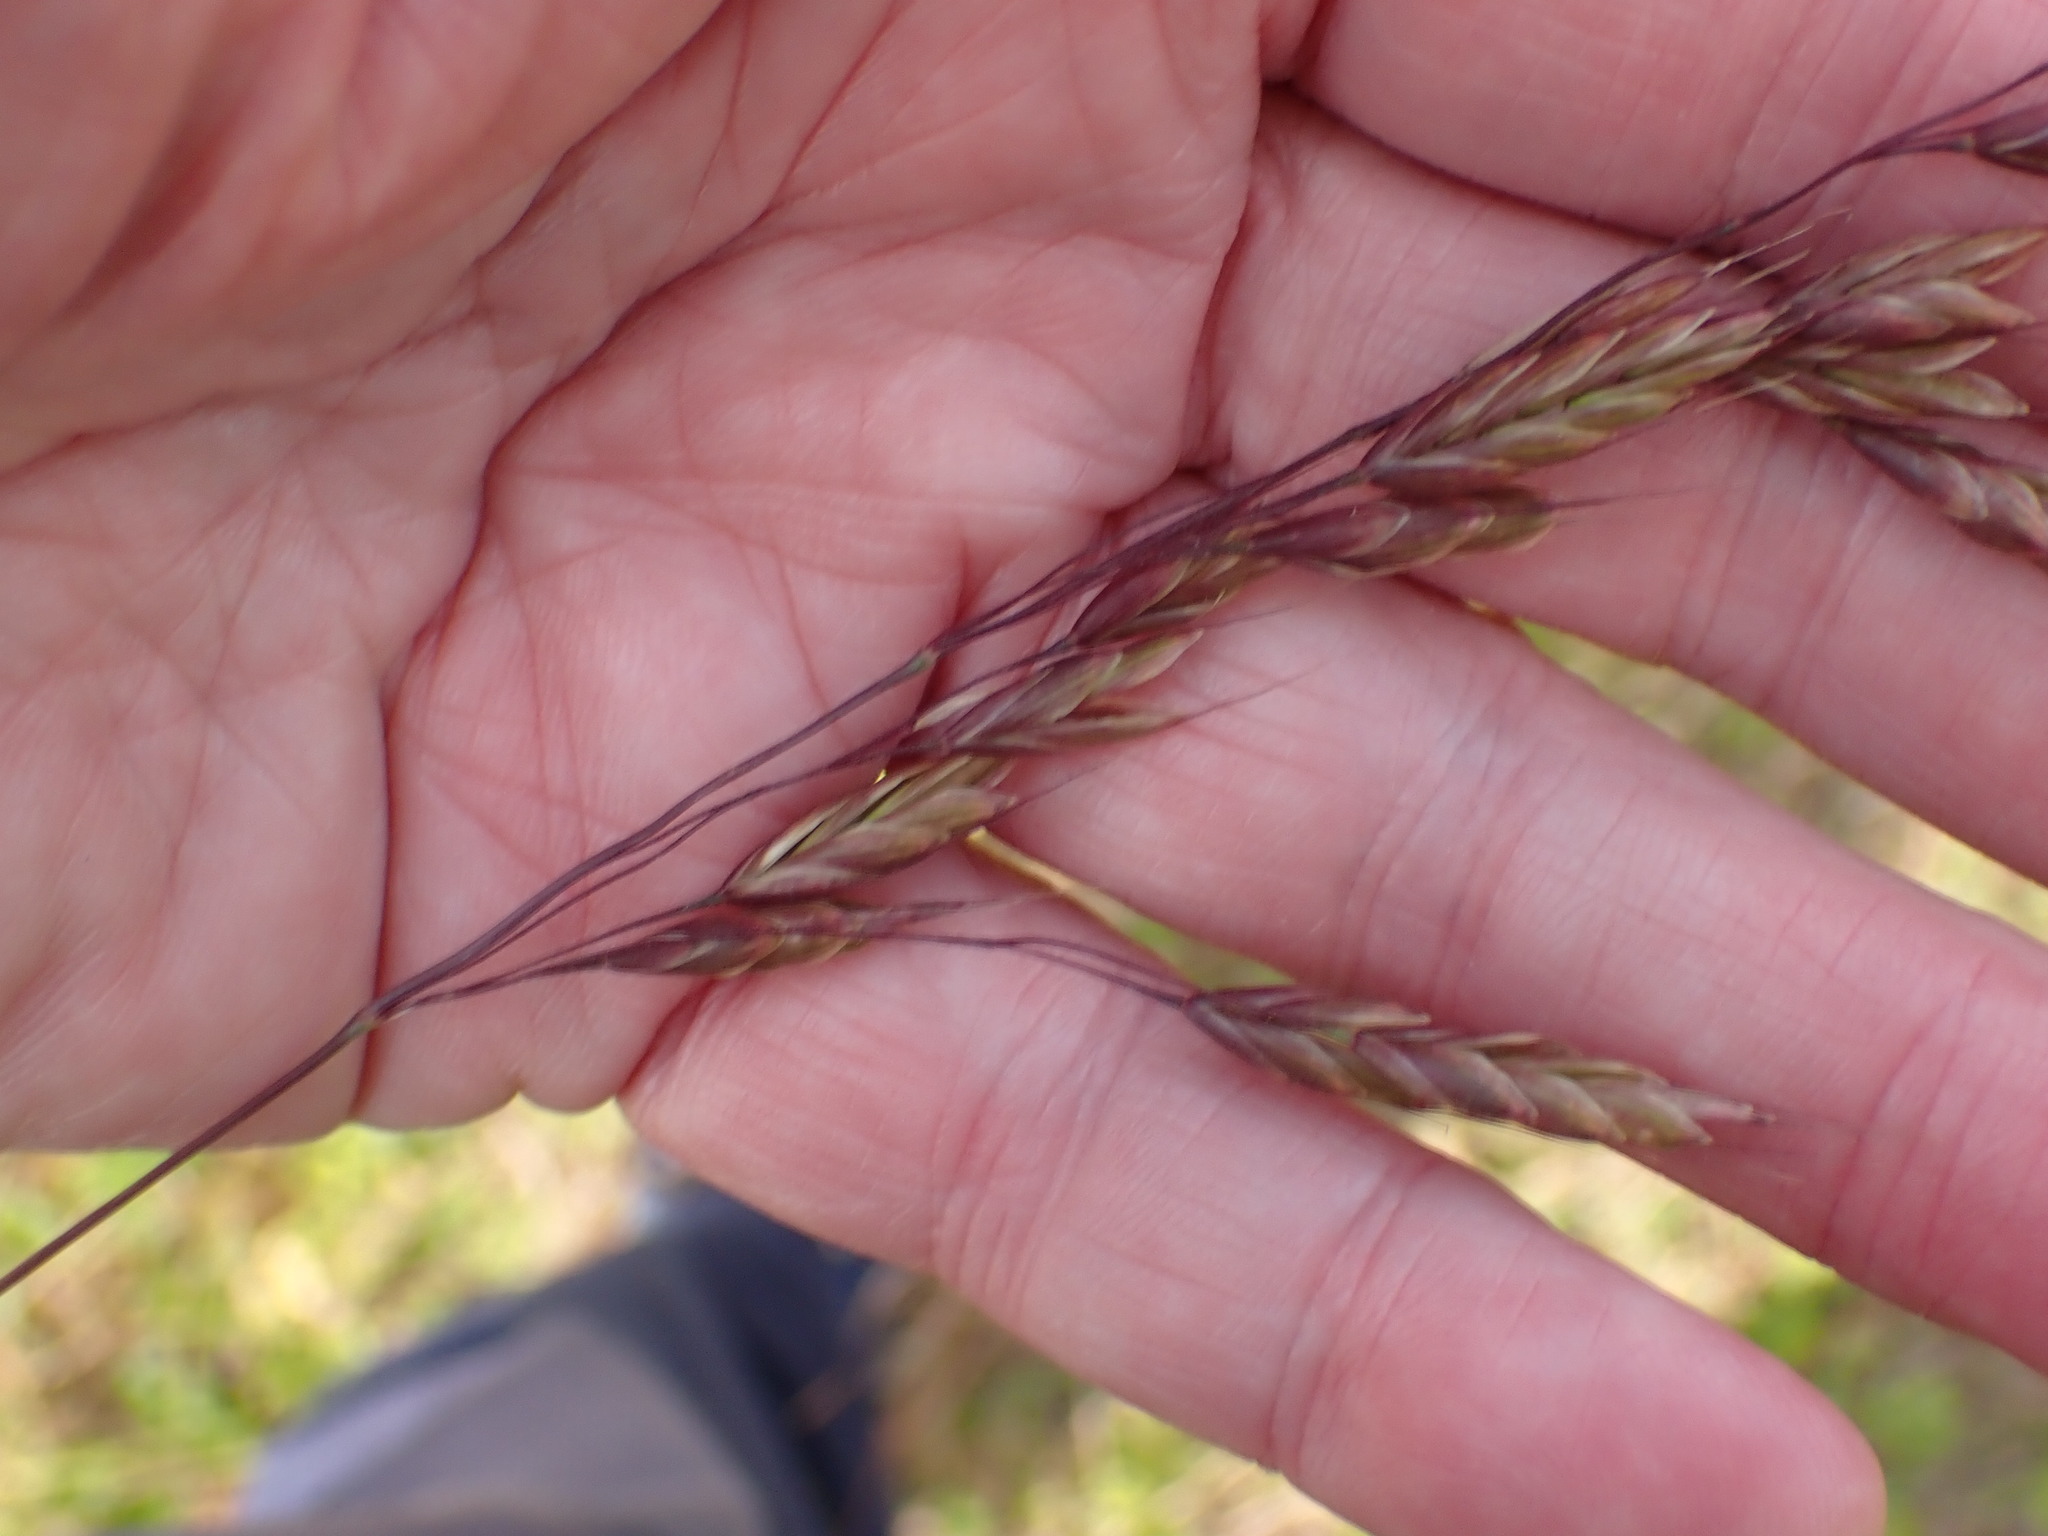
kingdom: Plantae
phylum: Tracheophyta
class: Liliopsida
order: Poales
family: Poaceae
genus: Bromus
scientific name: Bromus secalinus
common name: Rye brome
